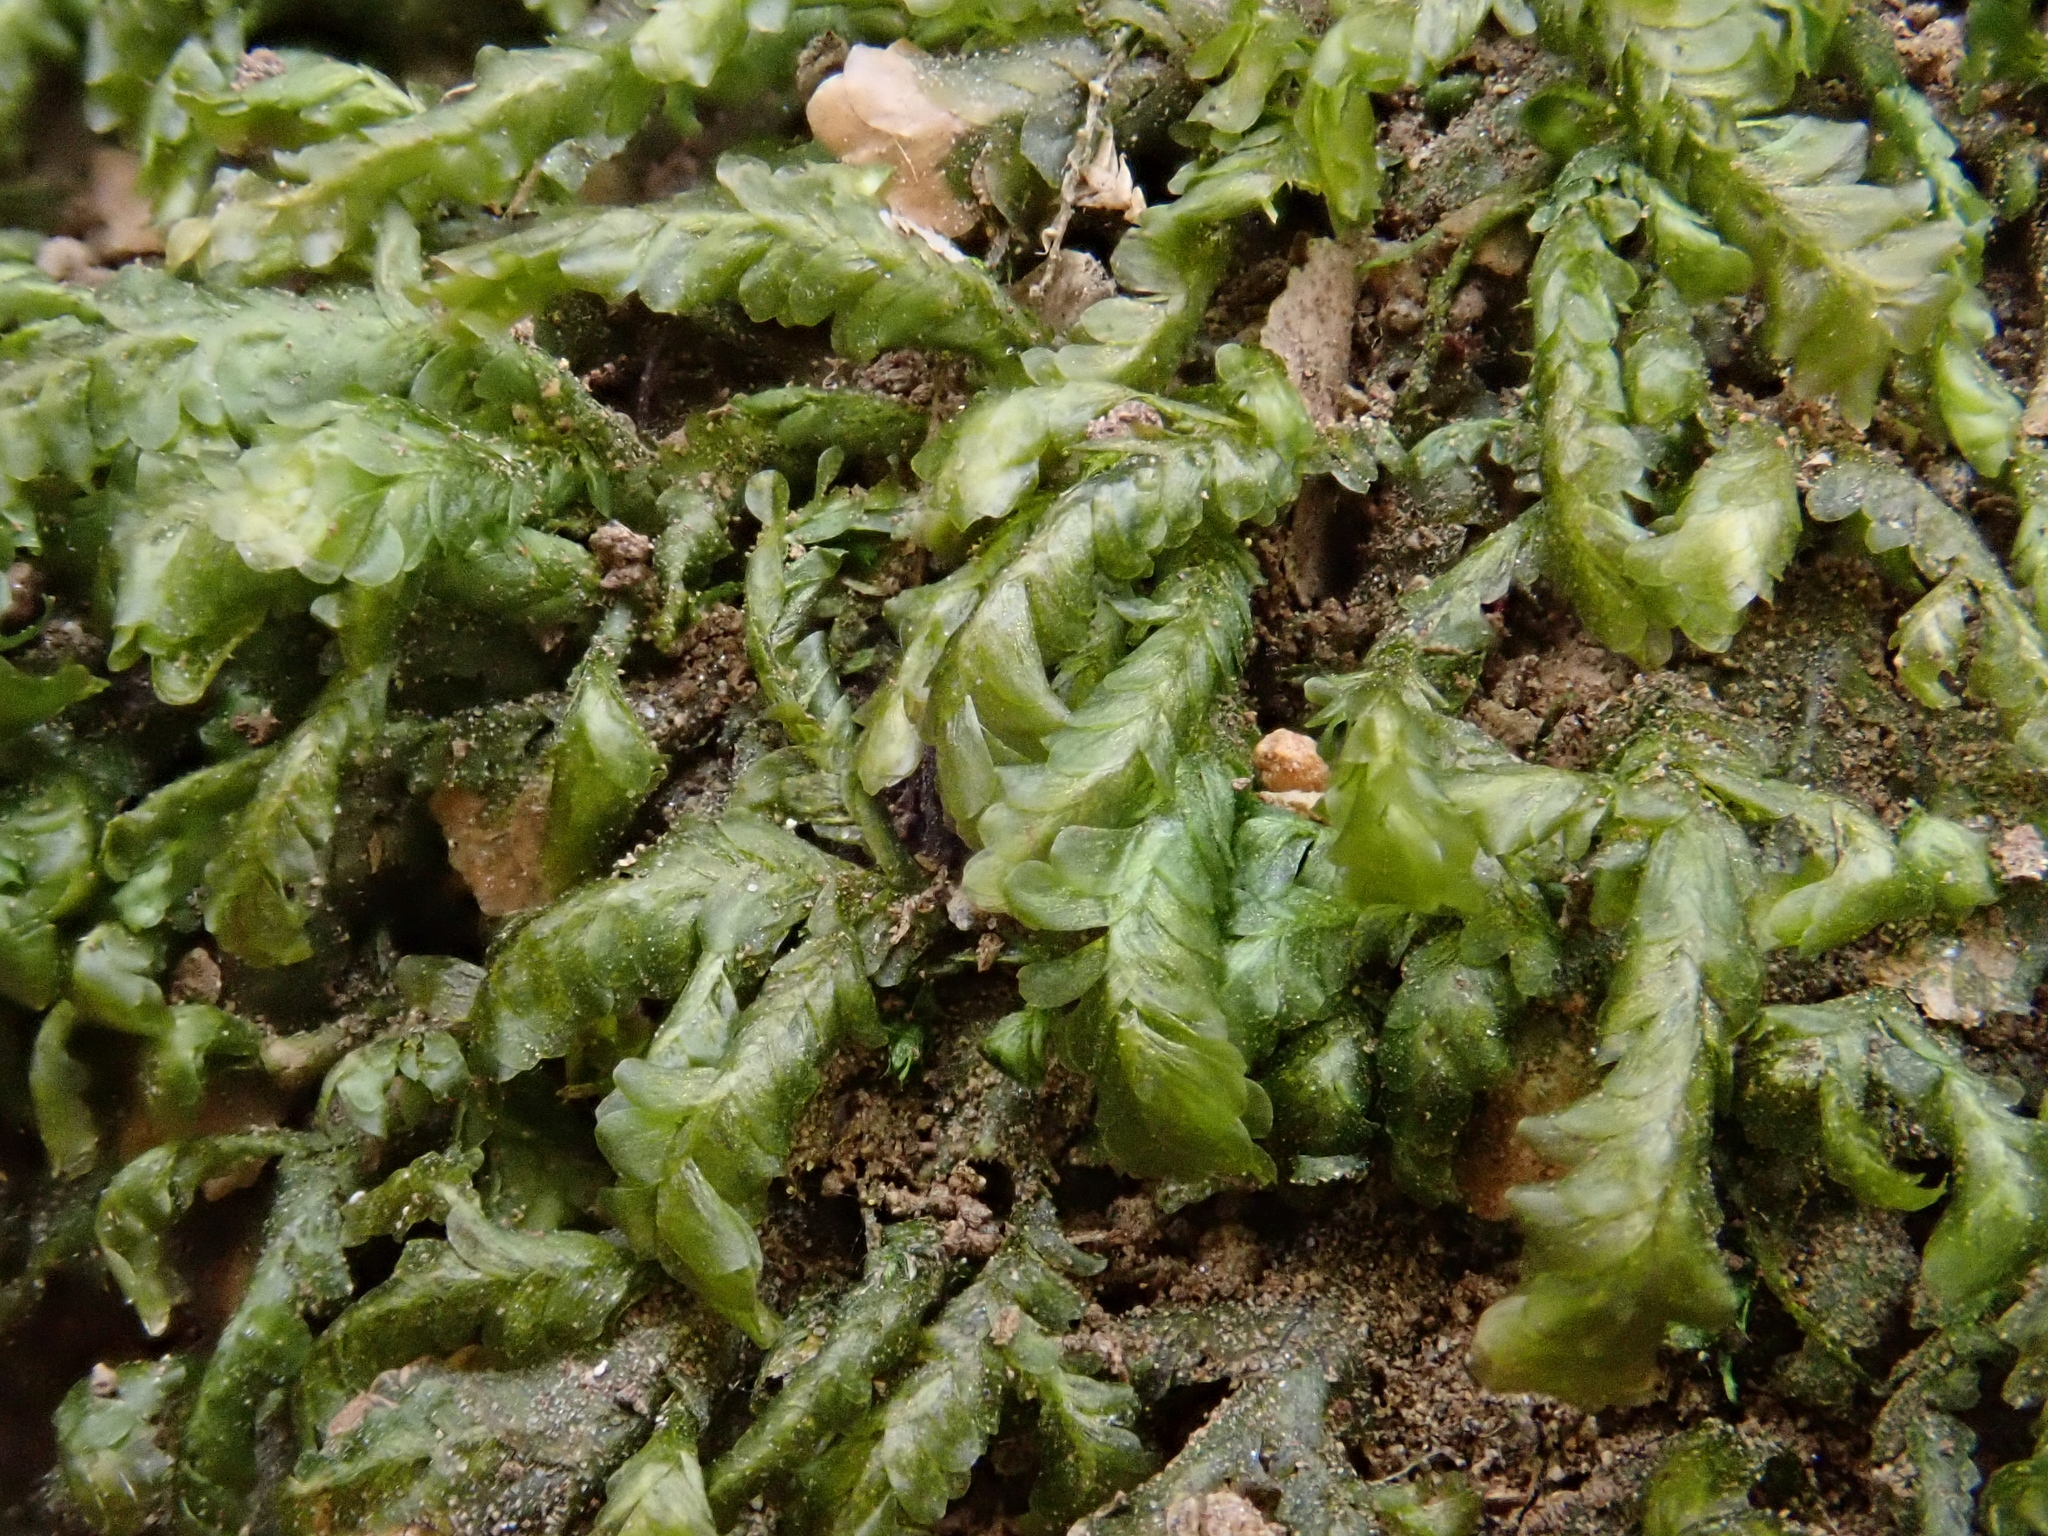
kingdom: Plantae
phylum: Bryophyta
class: Bryopsida
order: Hypnales
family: Neckeraceae
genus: Homalia
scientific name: Homalia trichomanoides
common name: Lime homalia moss
